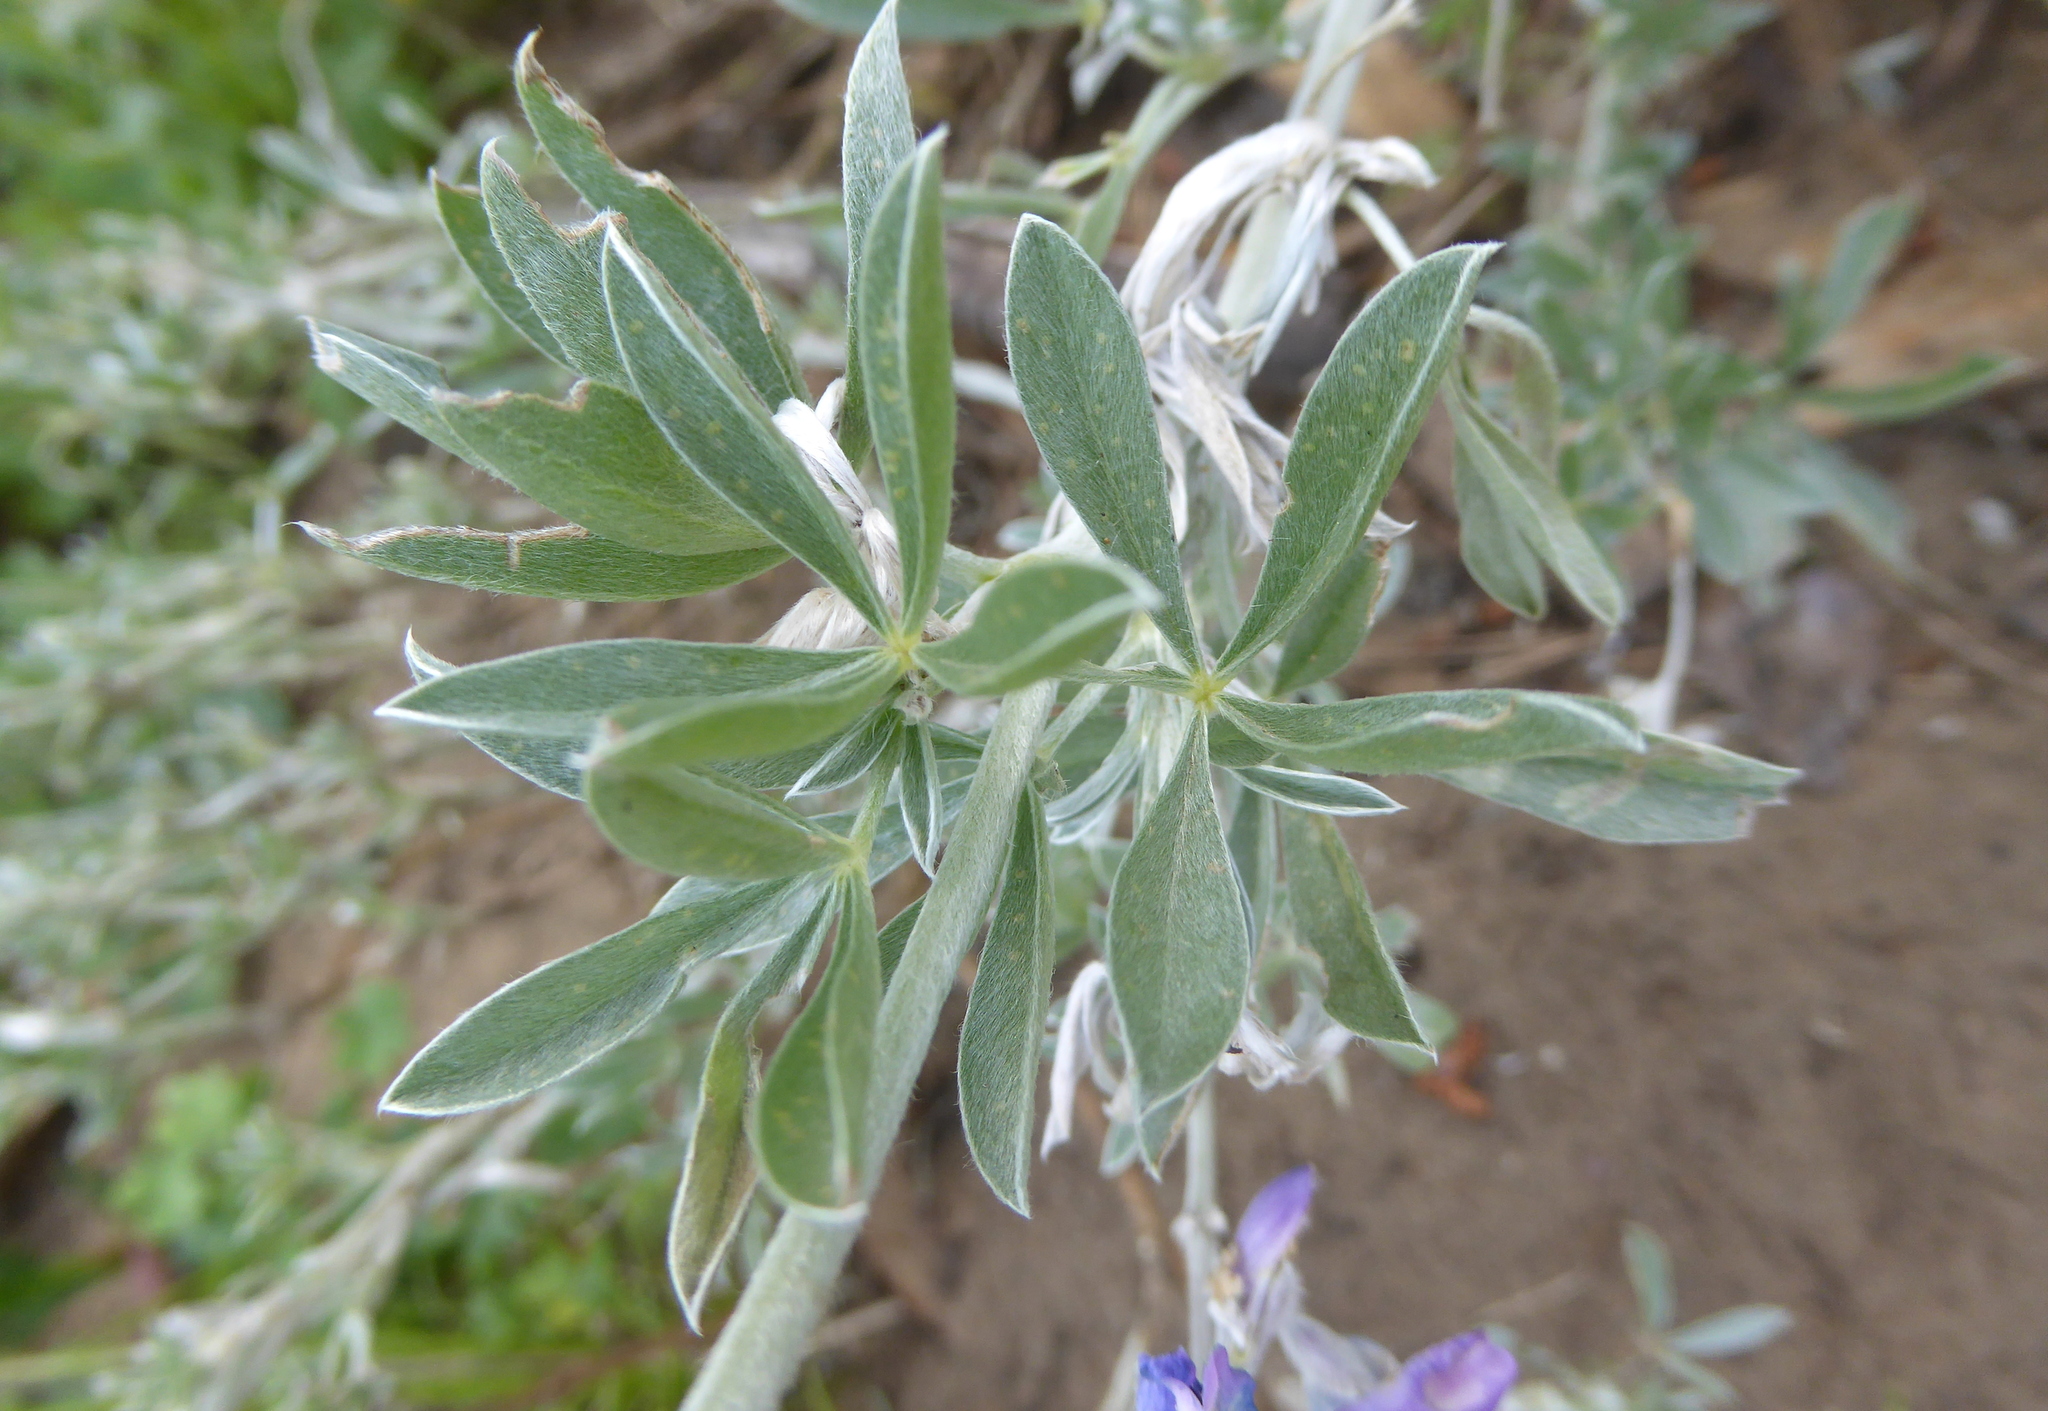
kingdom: Plantae
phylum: Tracheophyta
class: Magnoliopsida
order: Fabales
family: Fabaceae
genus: Lupinus
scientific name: Lupinus chamissonis
